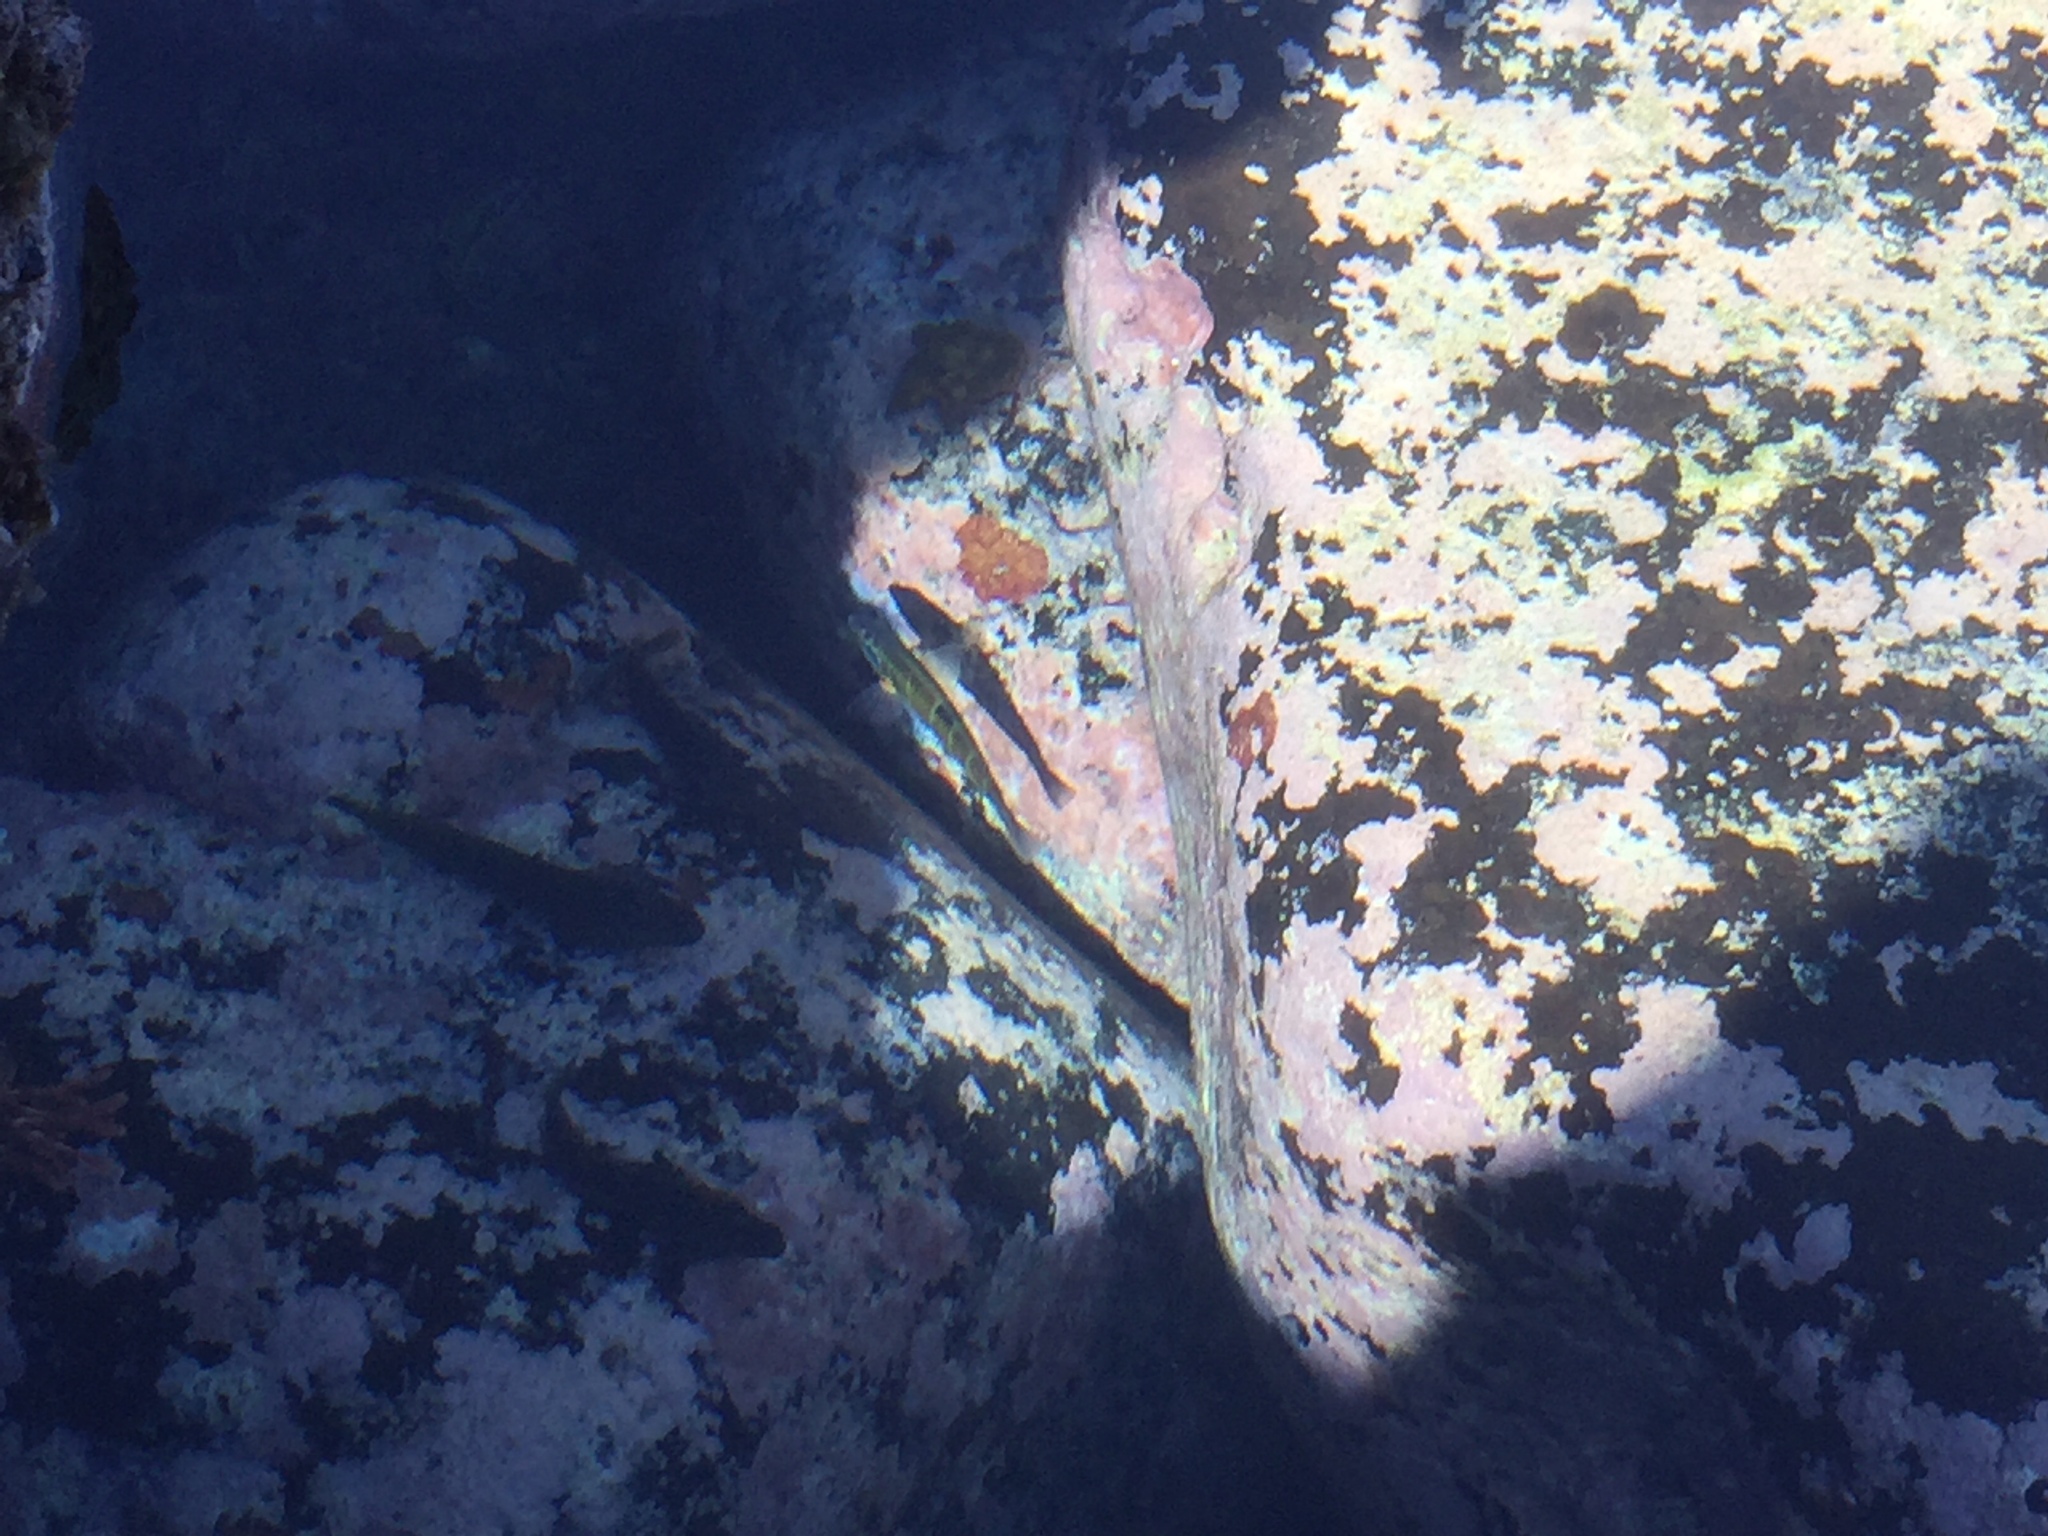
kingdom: Animalia
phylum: Chordata
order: Perciformes
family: Labridae
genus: Thalassoma
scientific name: Thalassoma pavo
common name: Ornate wrasse
